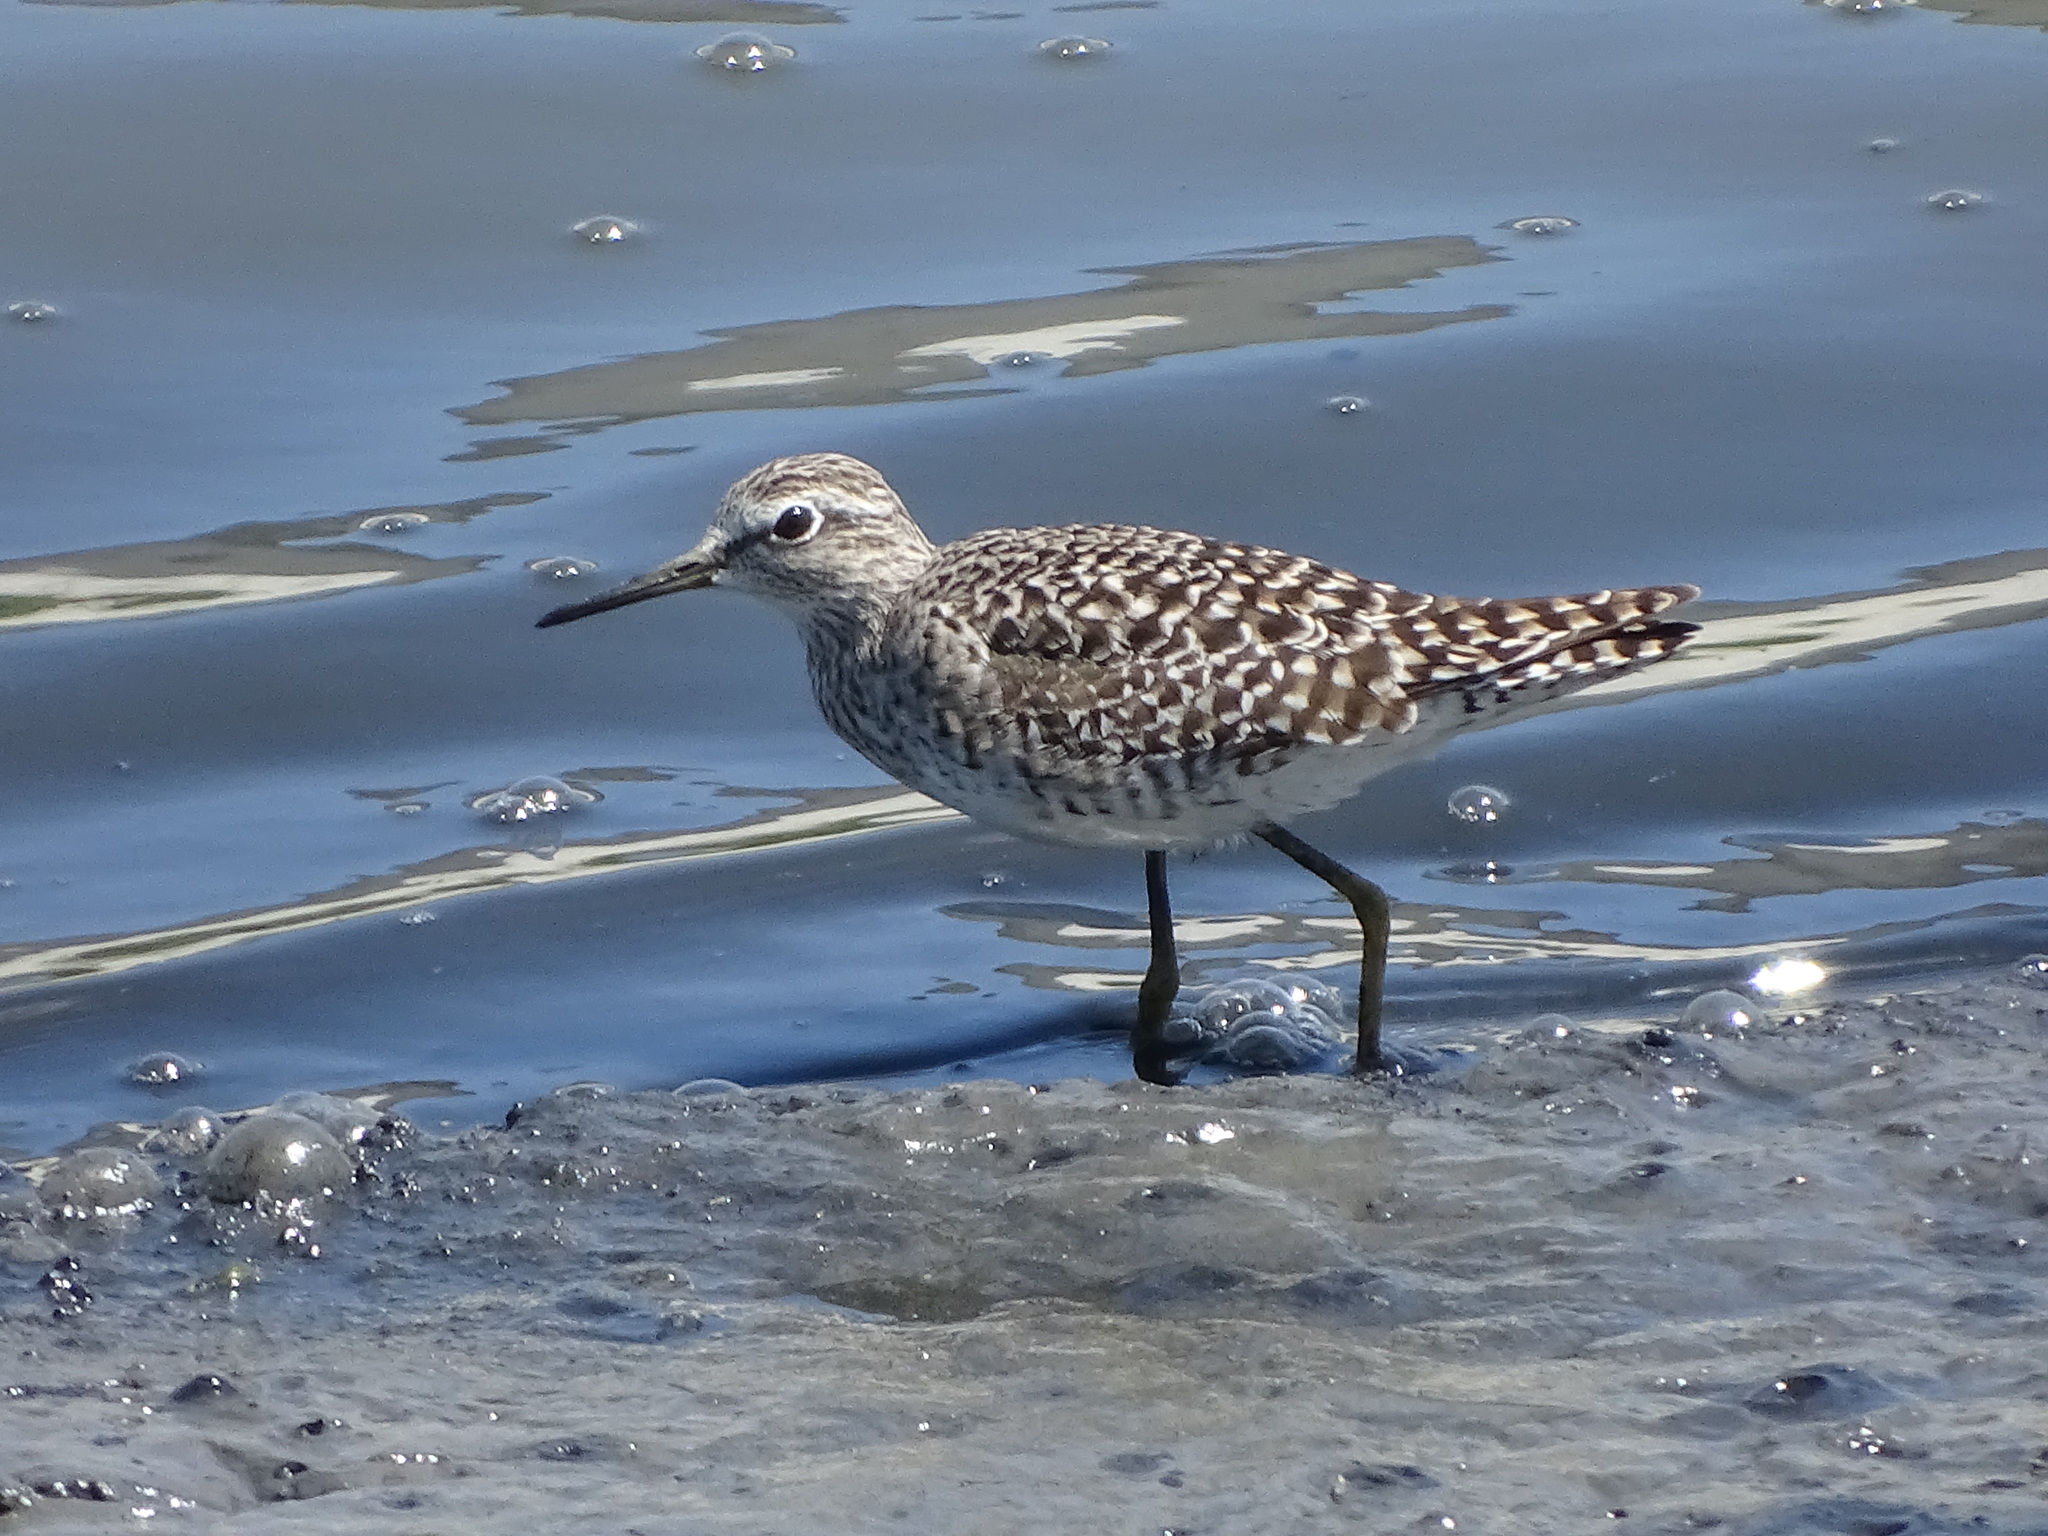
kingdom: Animalia
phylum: Chordata
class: Aves
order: Charadriiformes
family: Scolopacidae
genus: Tringa
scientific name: Tringa glareola
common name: Wood sandpiper
